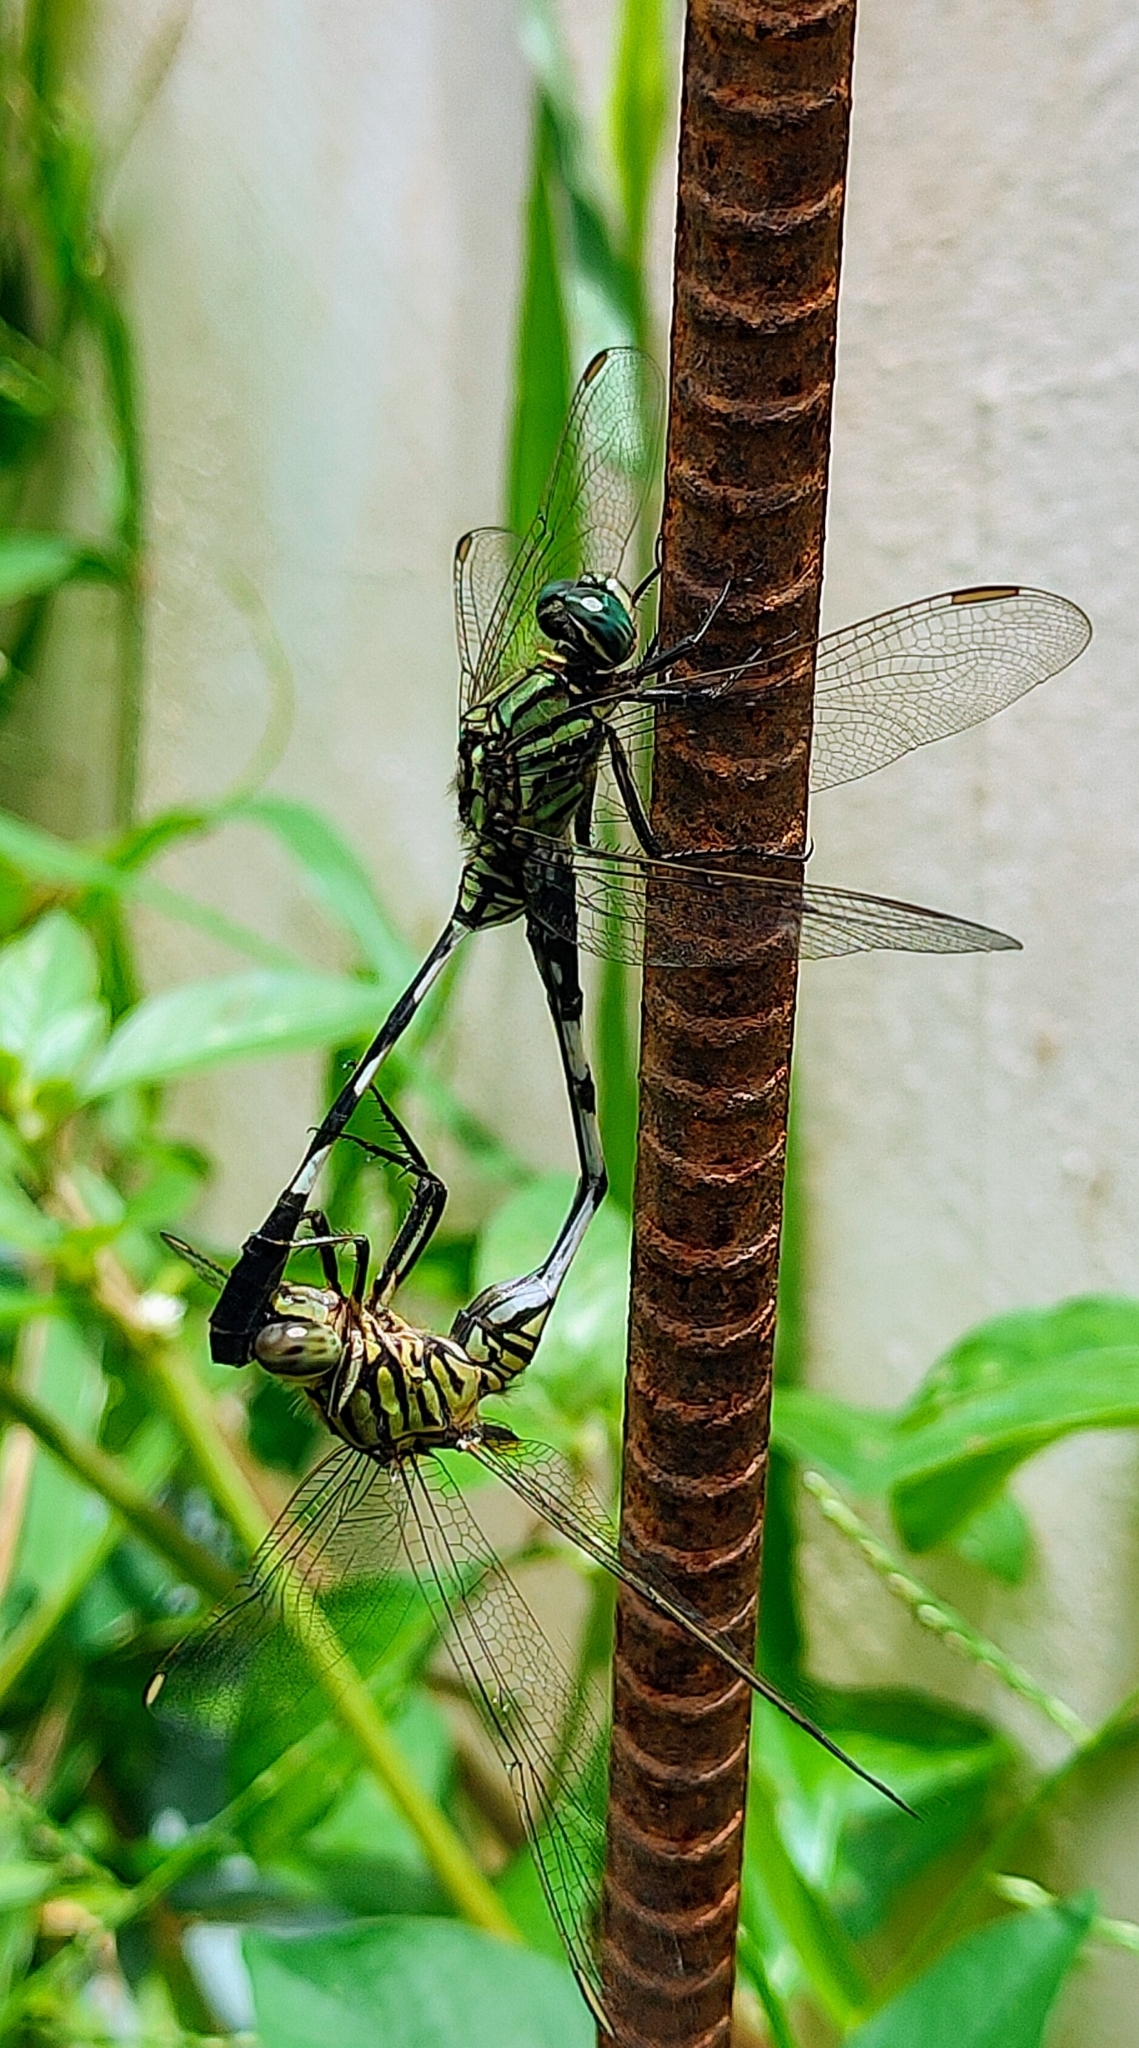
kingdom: Animalia
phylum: Arthropoda
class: Insecta
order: Odonata
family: Libellulidae
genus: Orthetrum
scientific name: Orthetrum sabina
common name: Slender skimmer
